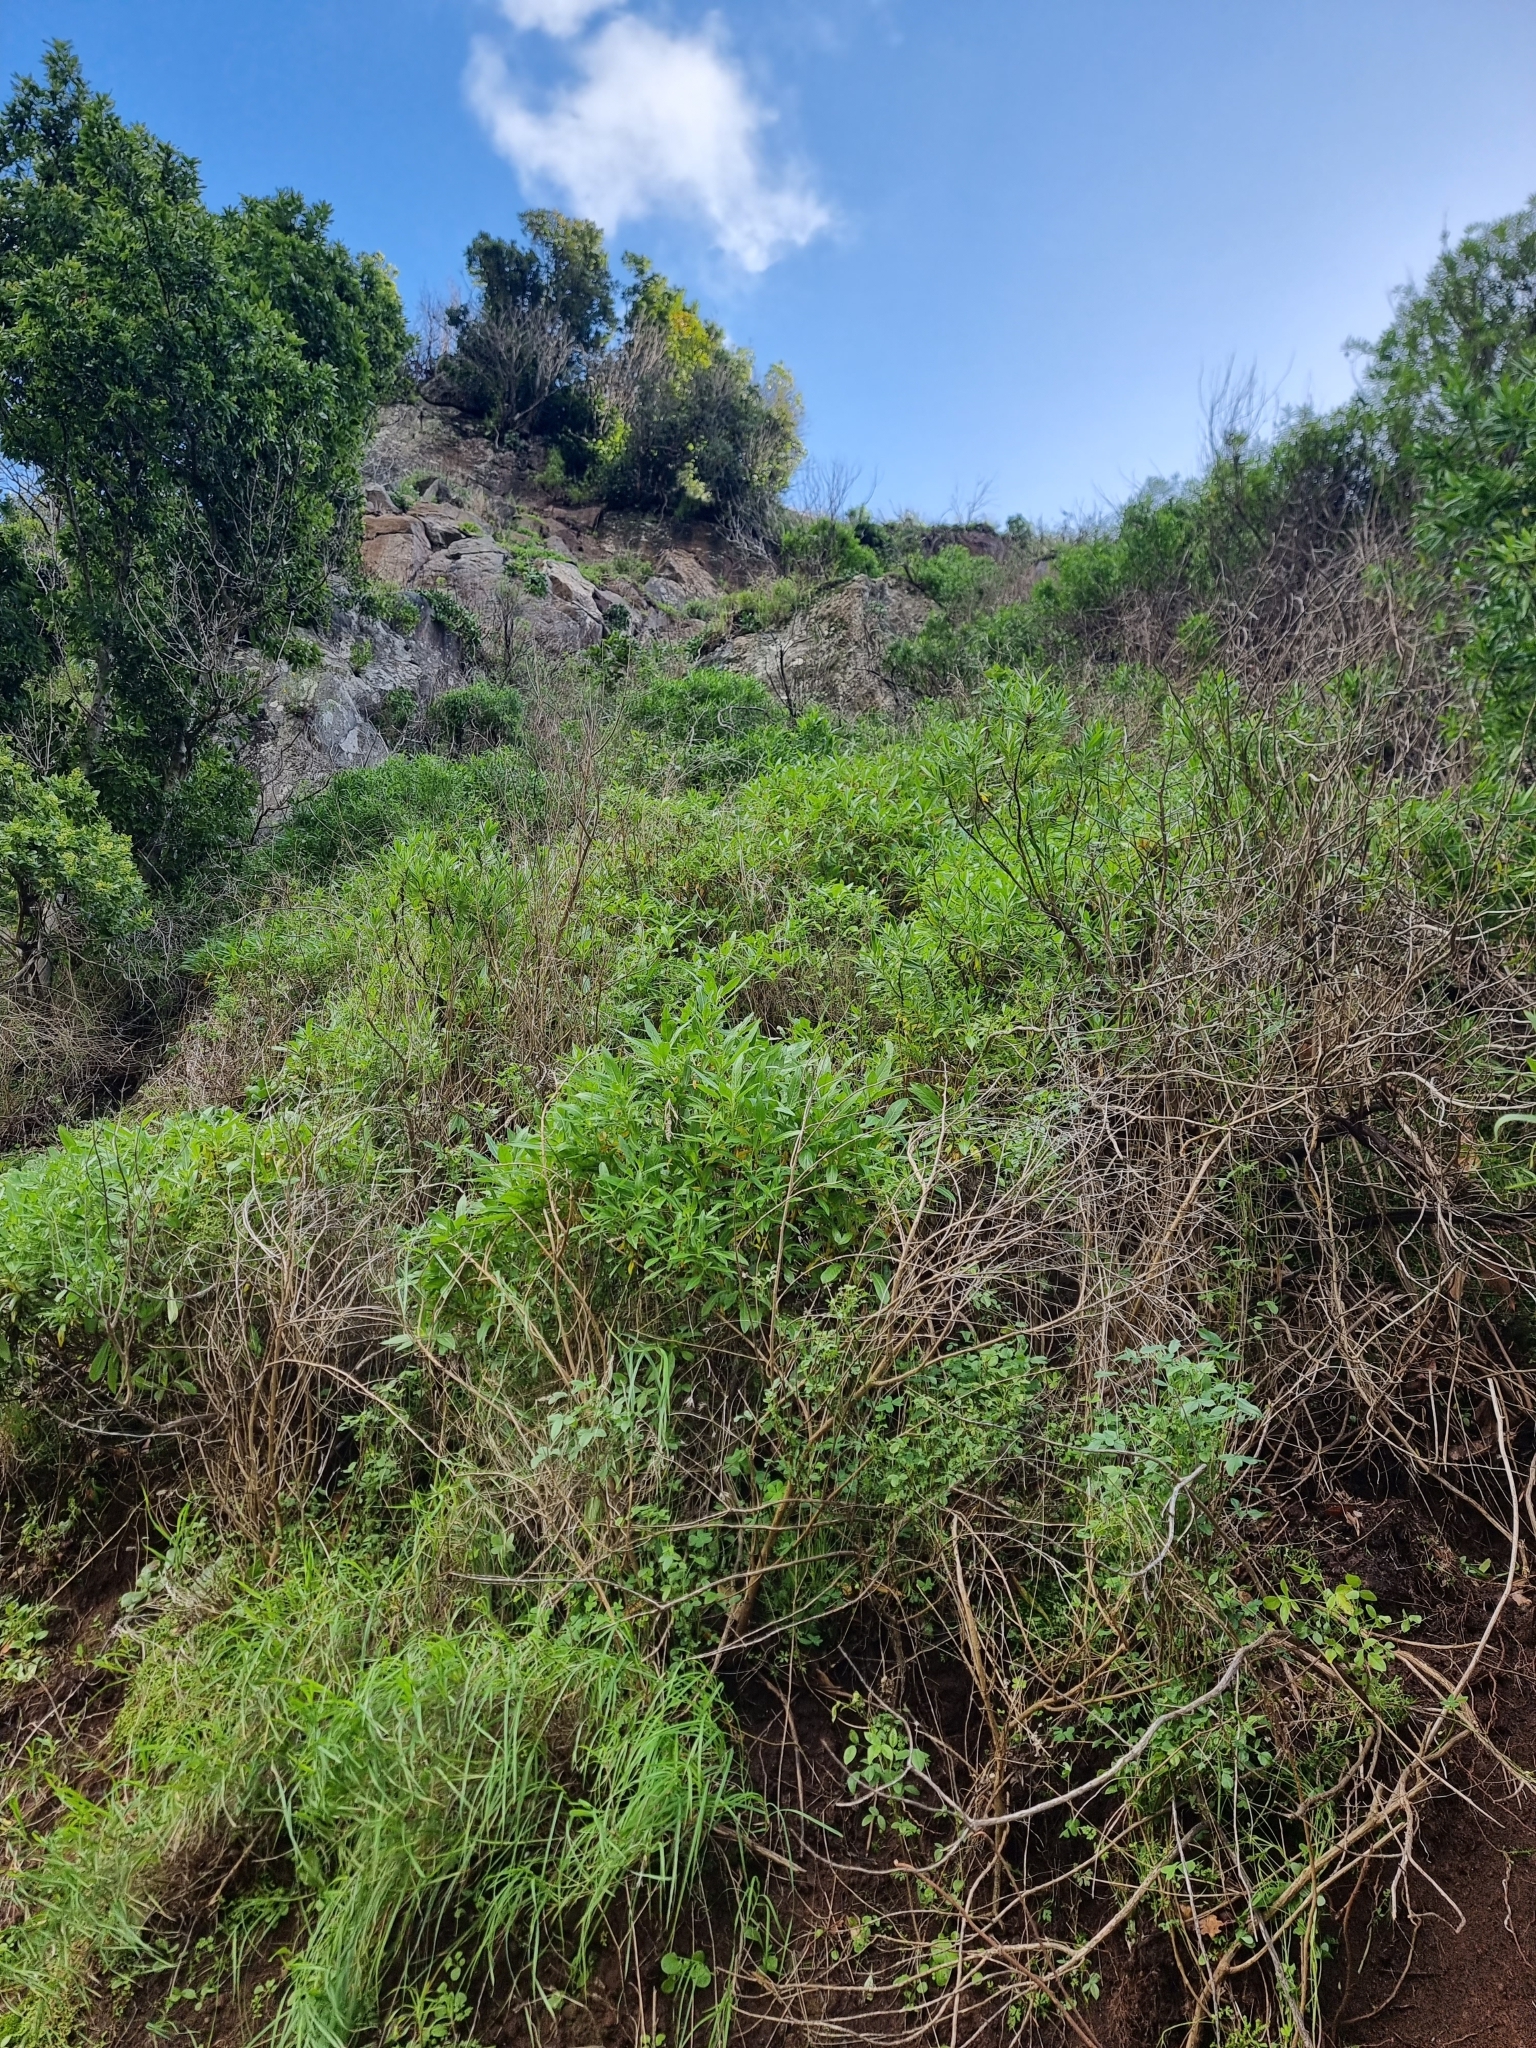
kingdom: Plantae
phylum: Tracheophyta
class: Magnoliopsida
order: Gentianales
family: Rubiaceae
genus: Phyllis
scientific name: Phyllis nobla
